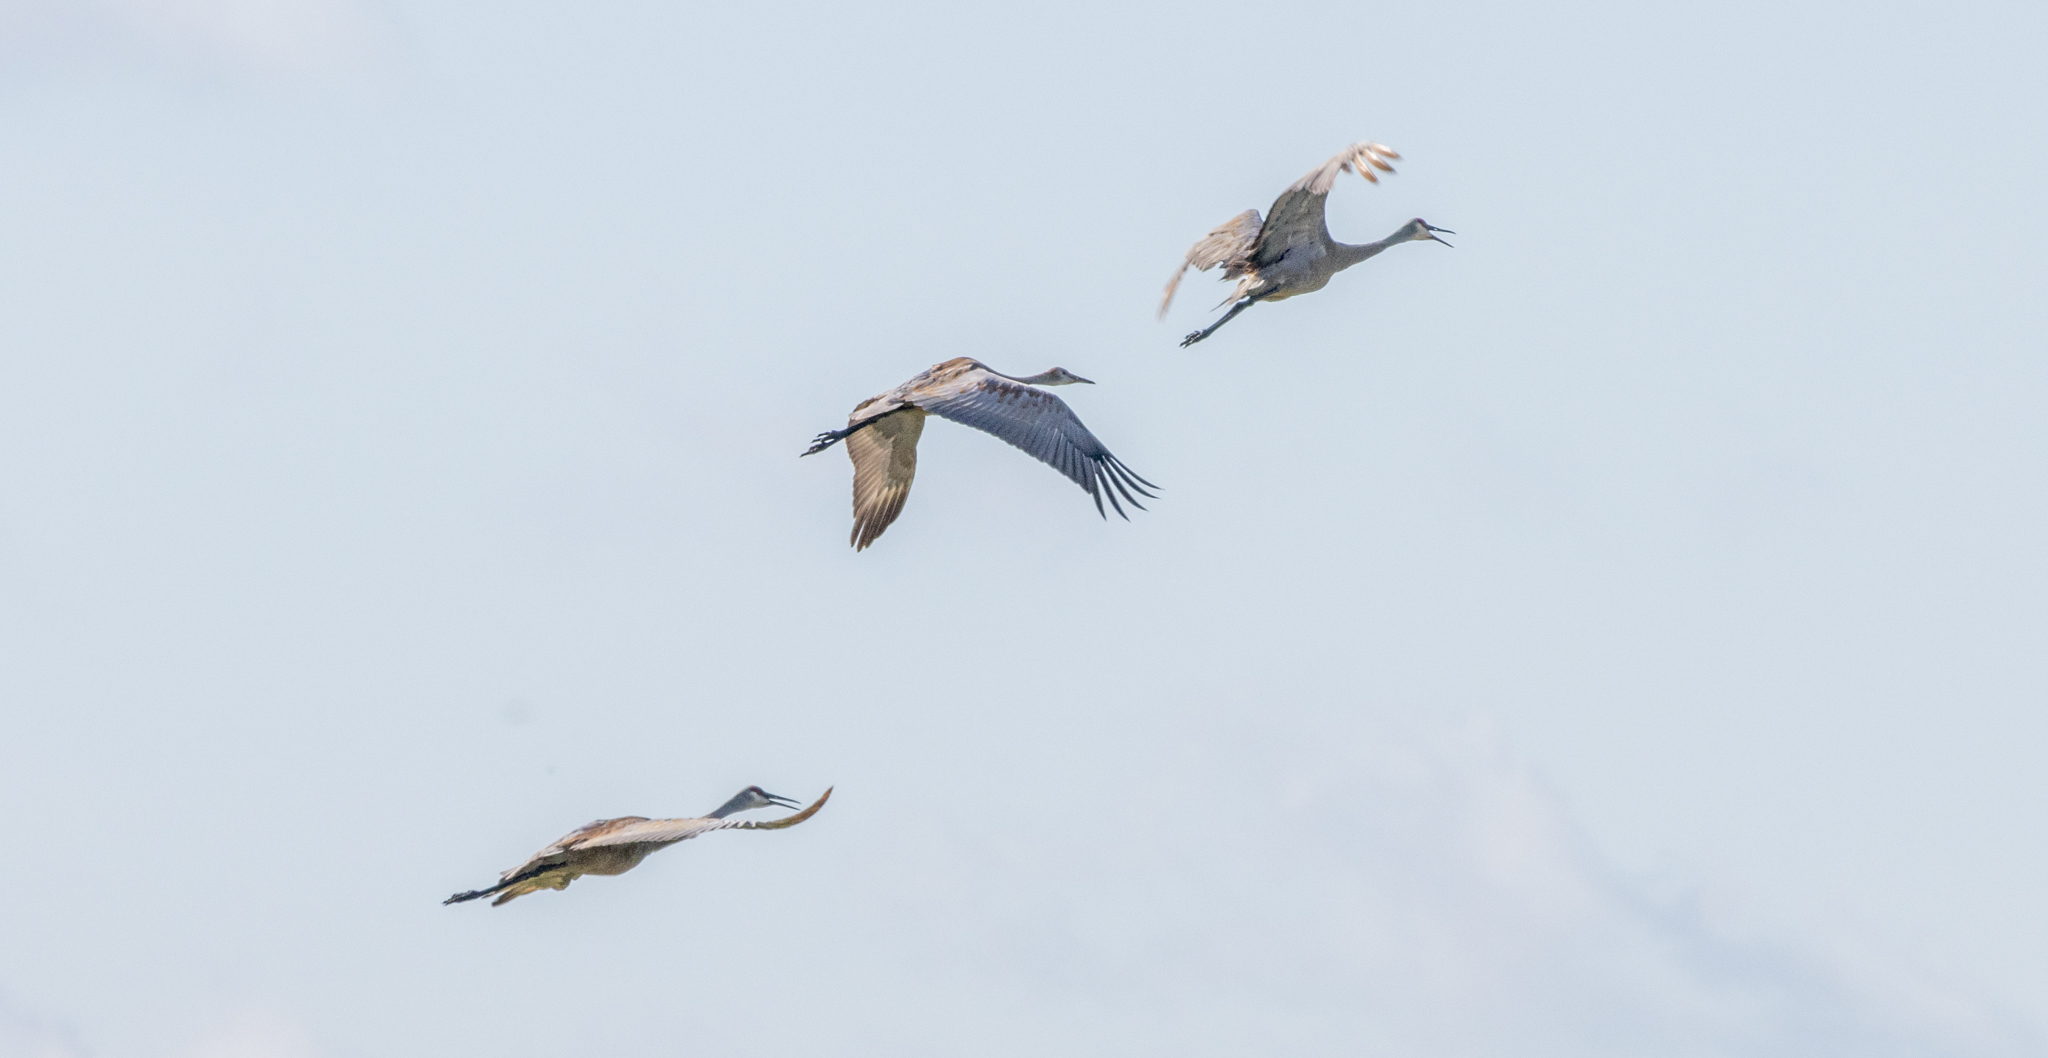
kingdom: Animalia
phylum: Chordata
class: Aves
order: Gruiformes
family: Gruidae
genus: Grus
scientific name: Grus canadensis
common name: Sandhill crane
